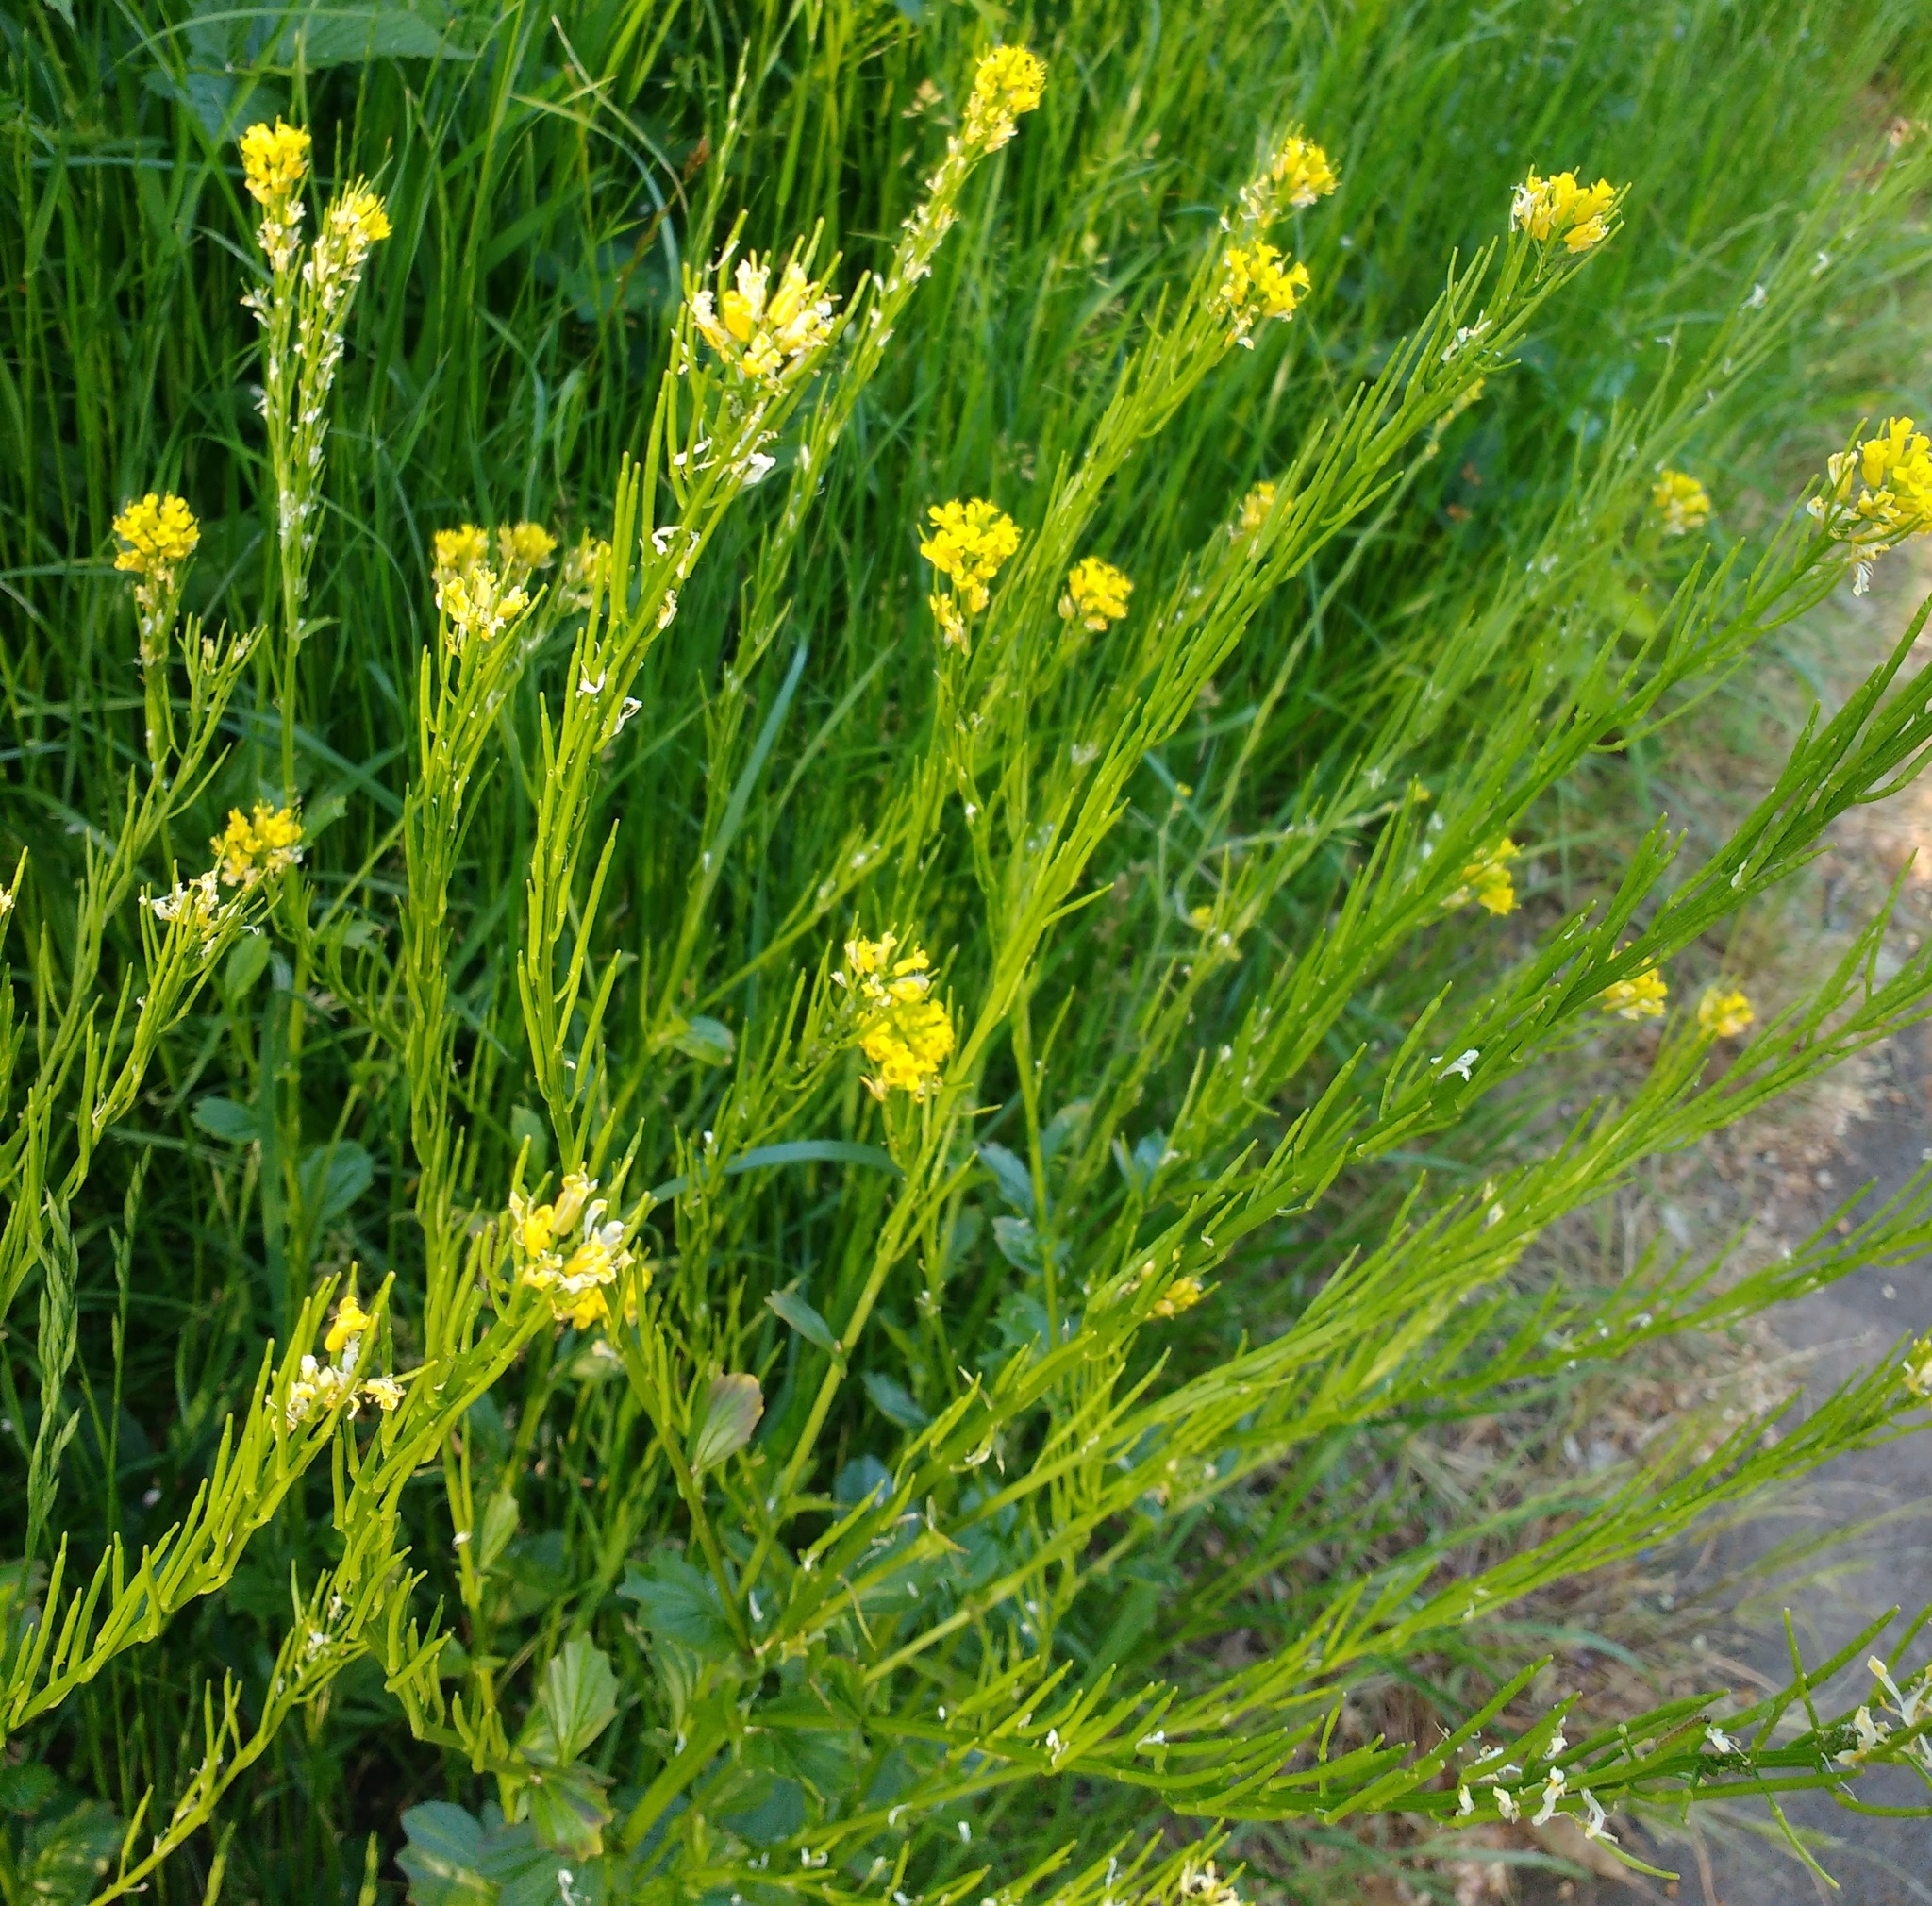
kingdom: Plantae
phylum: Tracheophyta
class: Magnoliopsida
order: Brassicales
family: Brassicaceae
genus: Barbarea
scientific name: Barbarea vulgaris
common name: Cressy-greens
